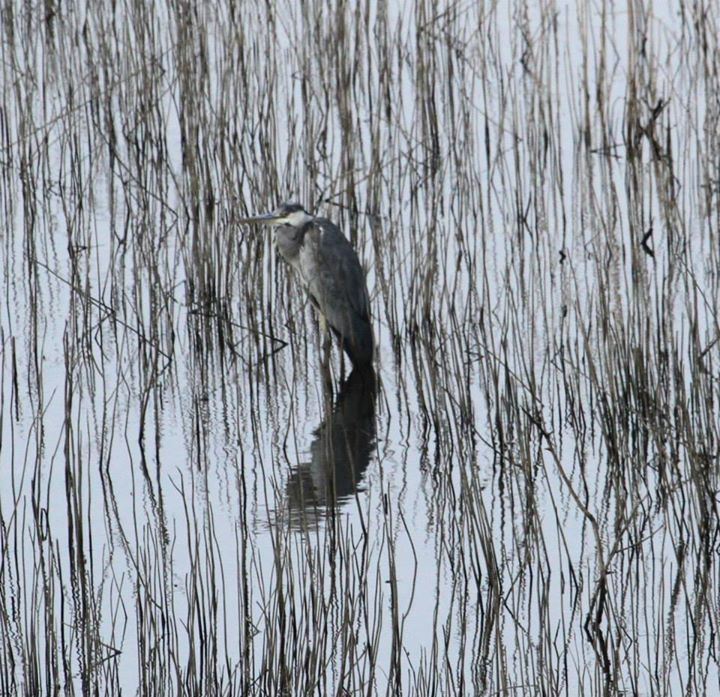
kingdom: Animalia
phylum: Chordata
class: Aves
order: Pelecaniformes
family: Ardeidae
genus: Ardea
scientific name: Ardea cinerea
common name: Grey heron
